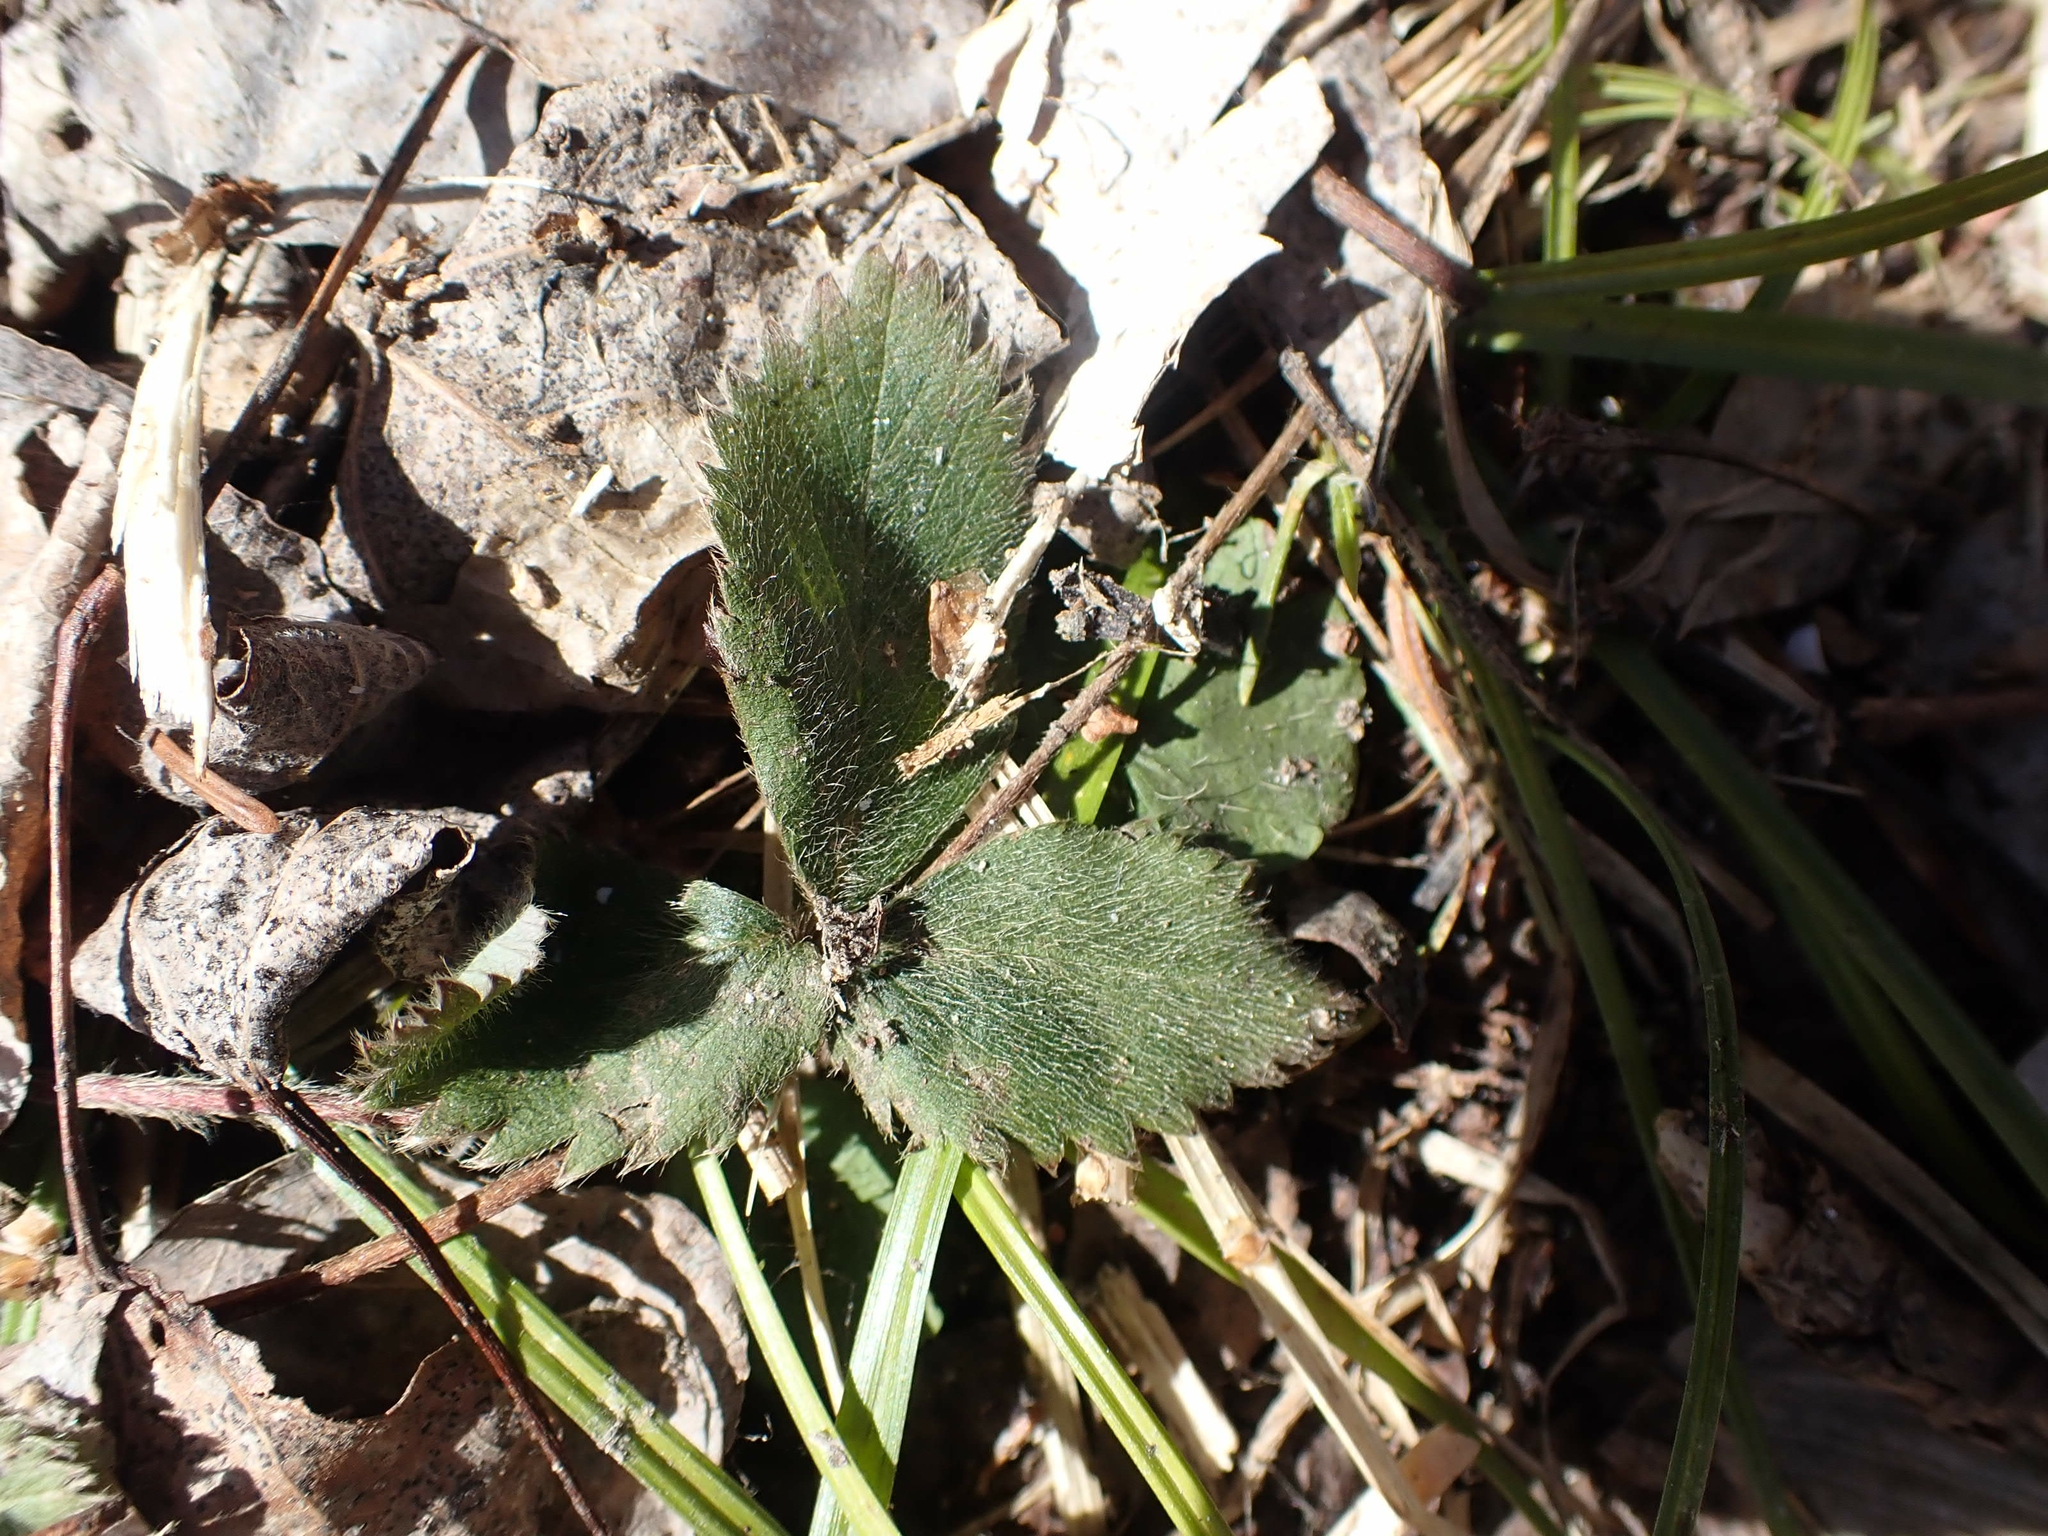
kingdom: Plantae
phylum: Tracheophyta
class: Magnoliopsida
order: Rosales
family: Rosaceae
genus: Fragaria
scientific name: Fragaria virginiana
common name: Thickleaved wild strawberry
